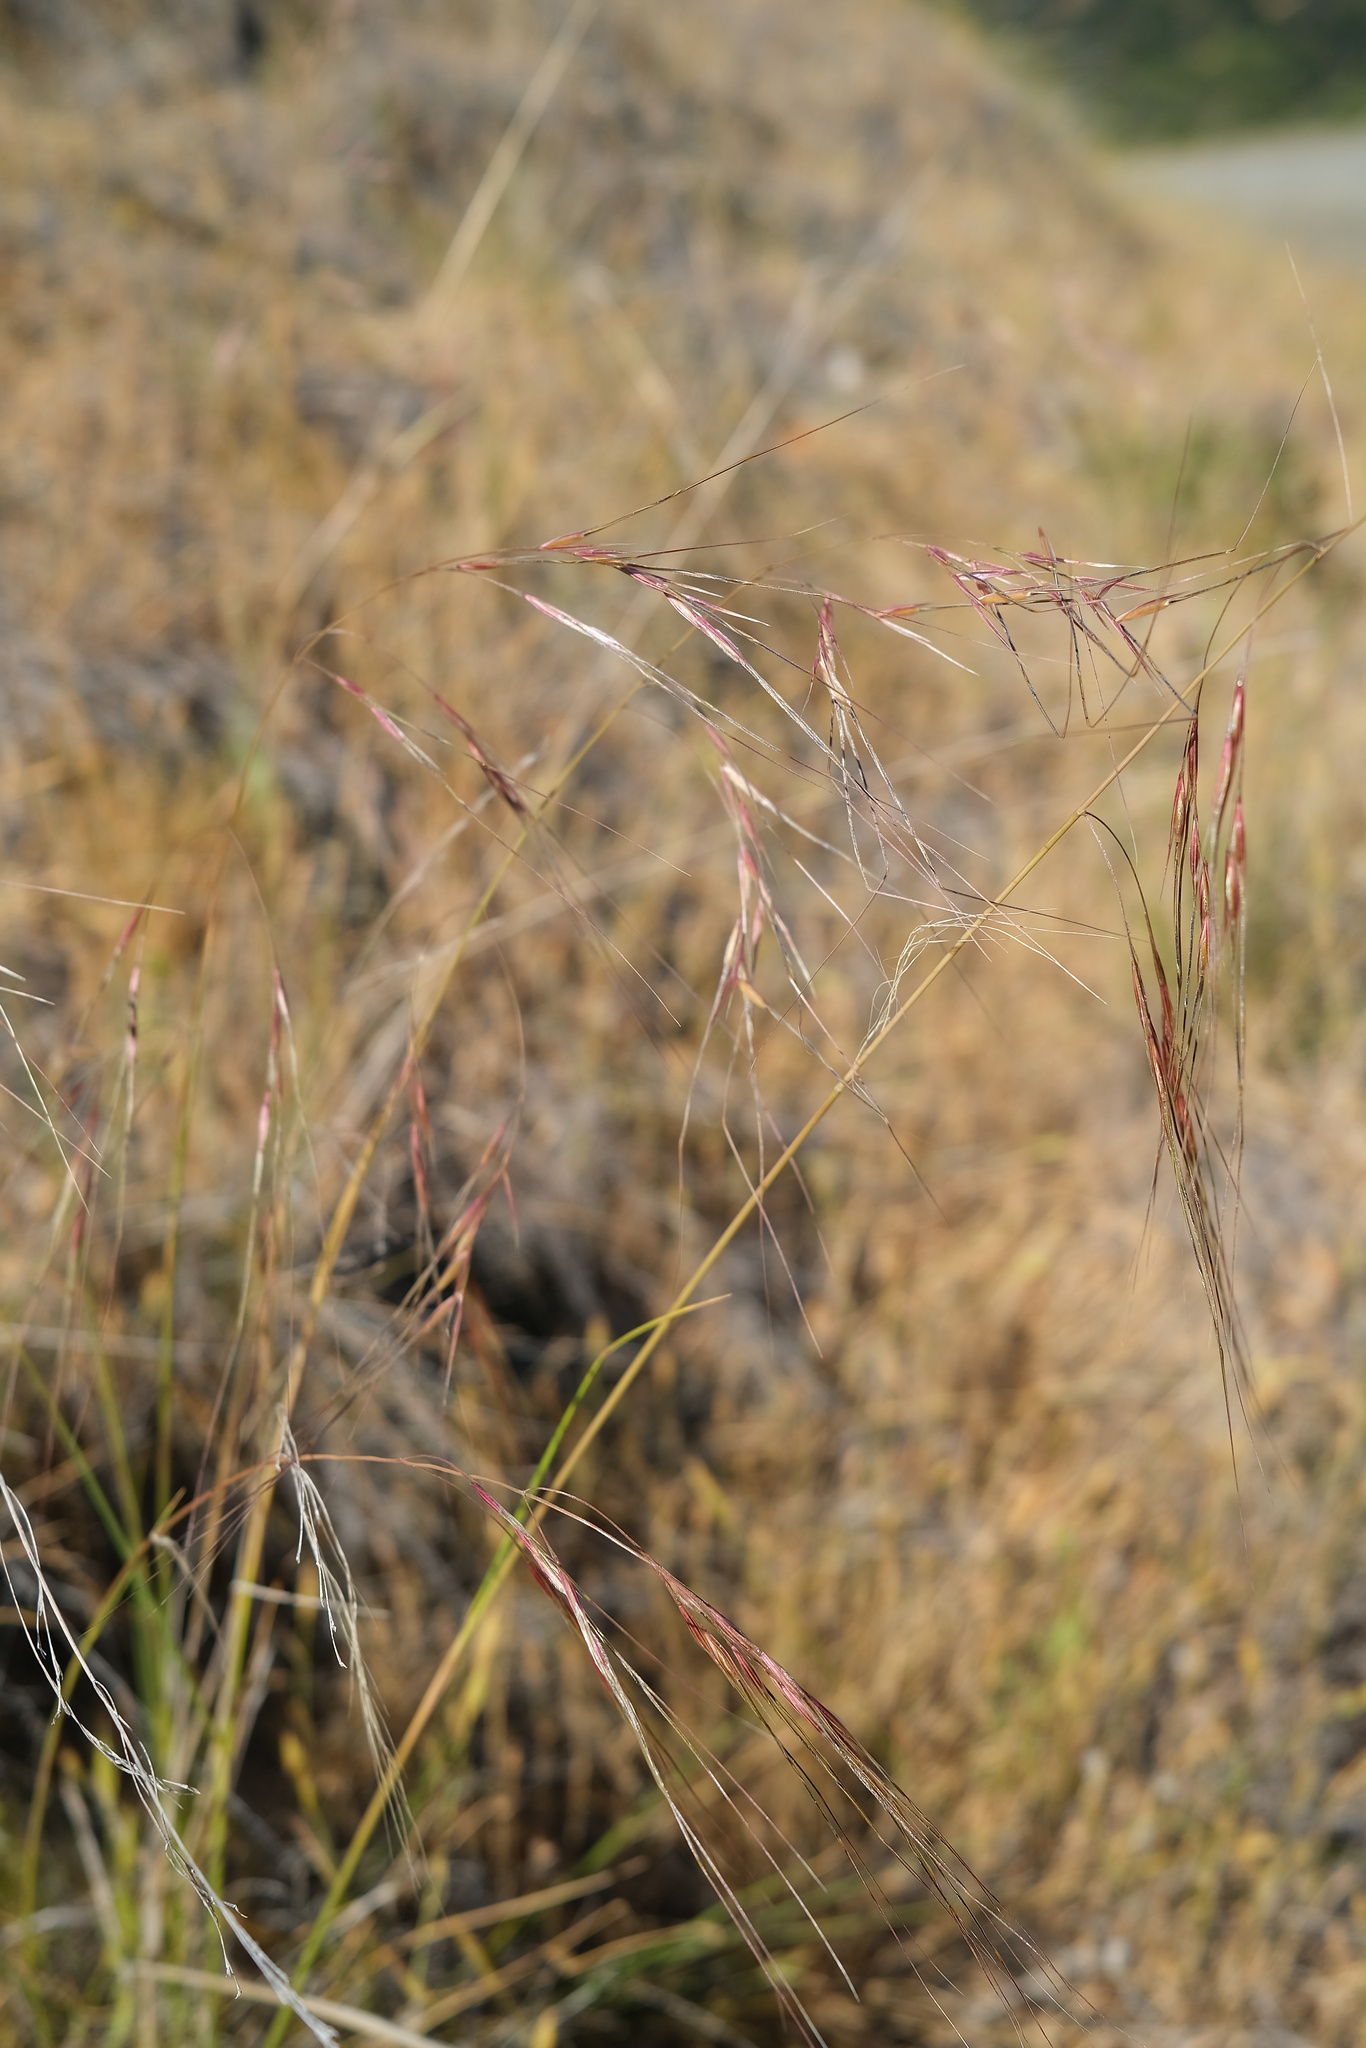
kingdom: Plantae
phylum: Tracheophyta
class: Liliopsida
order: Poales
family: Poaceae
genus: Nassella
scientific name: Nassella pulchra
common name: Purple needlegrass
